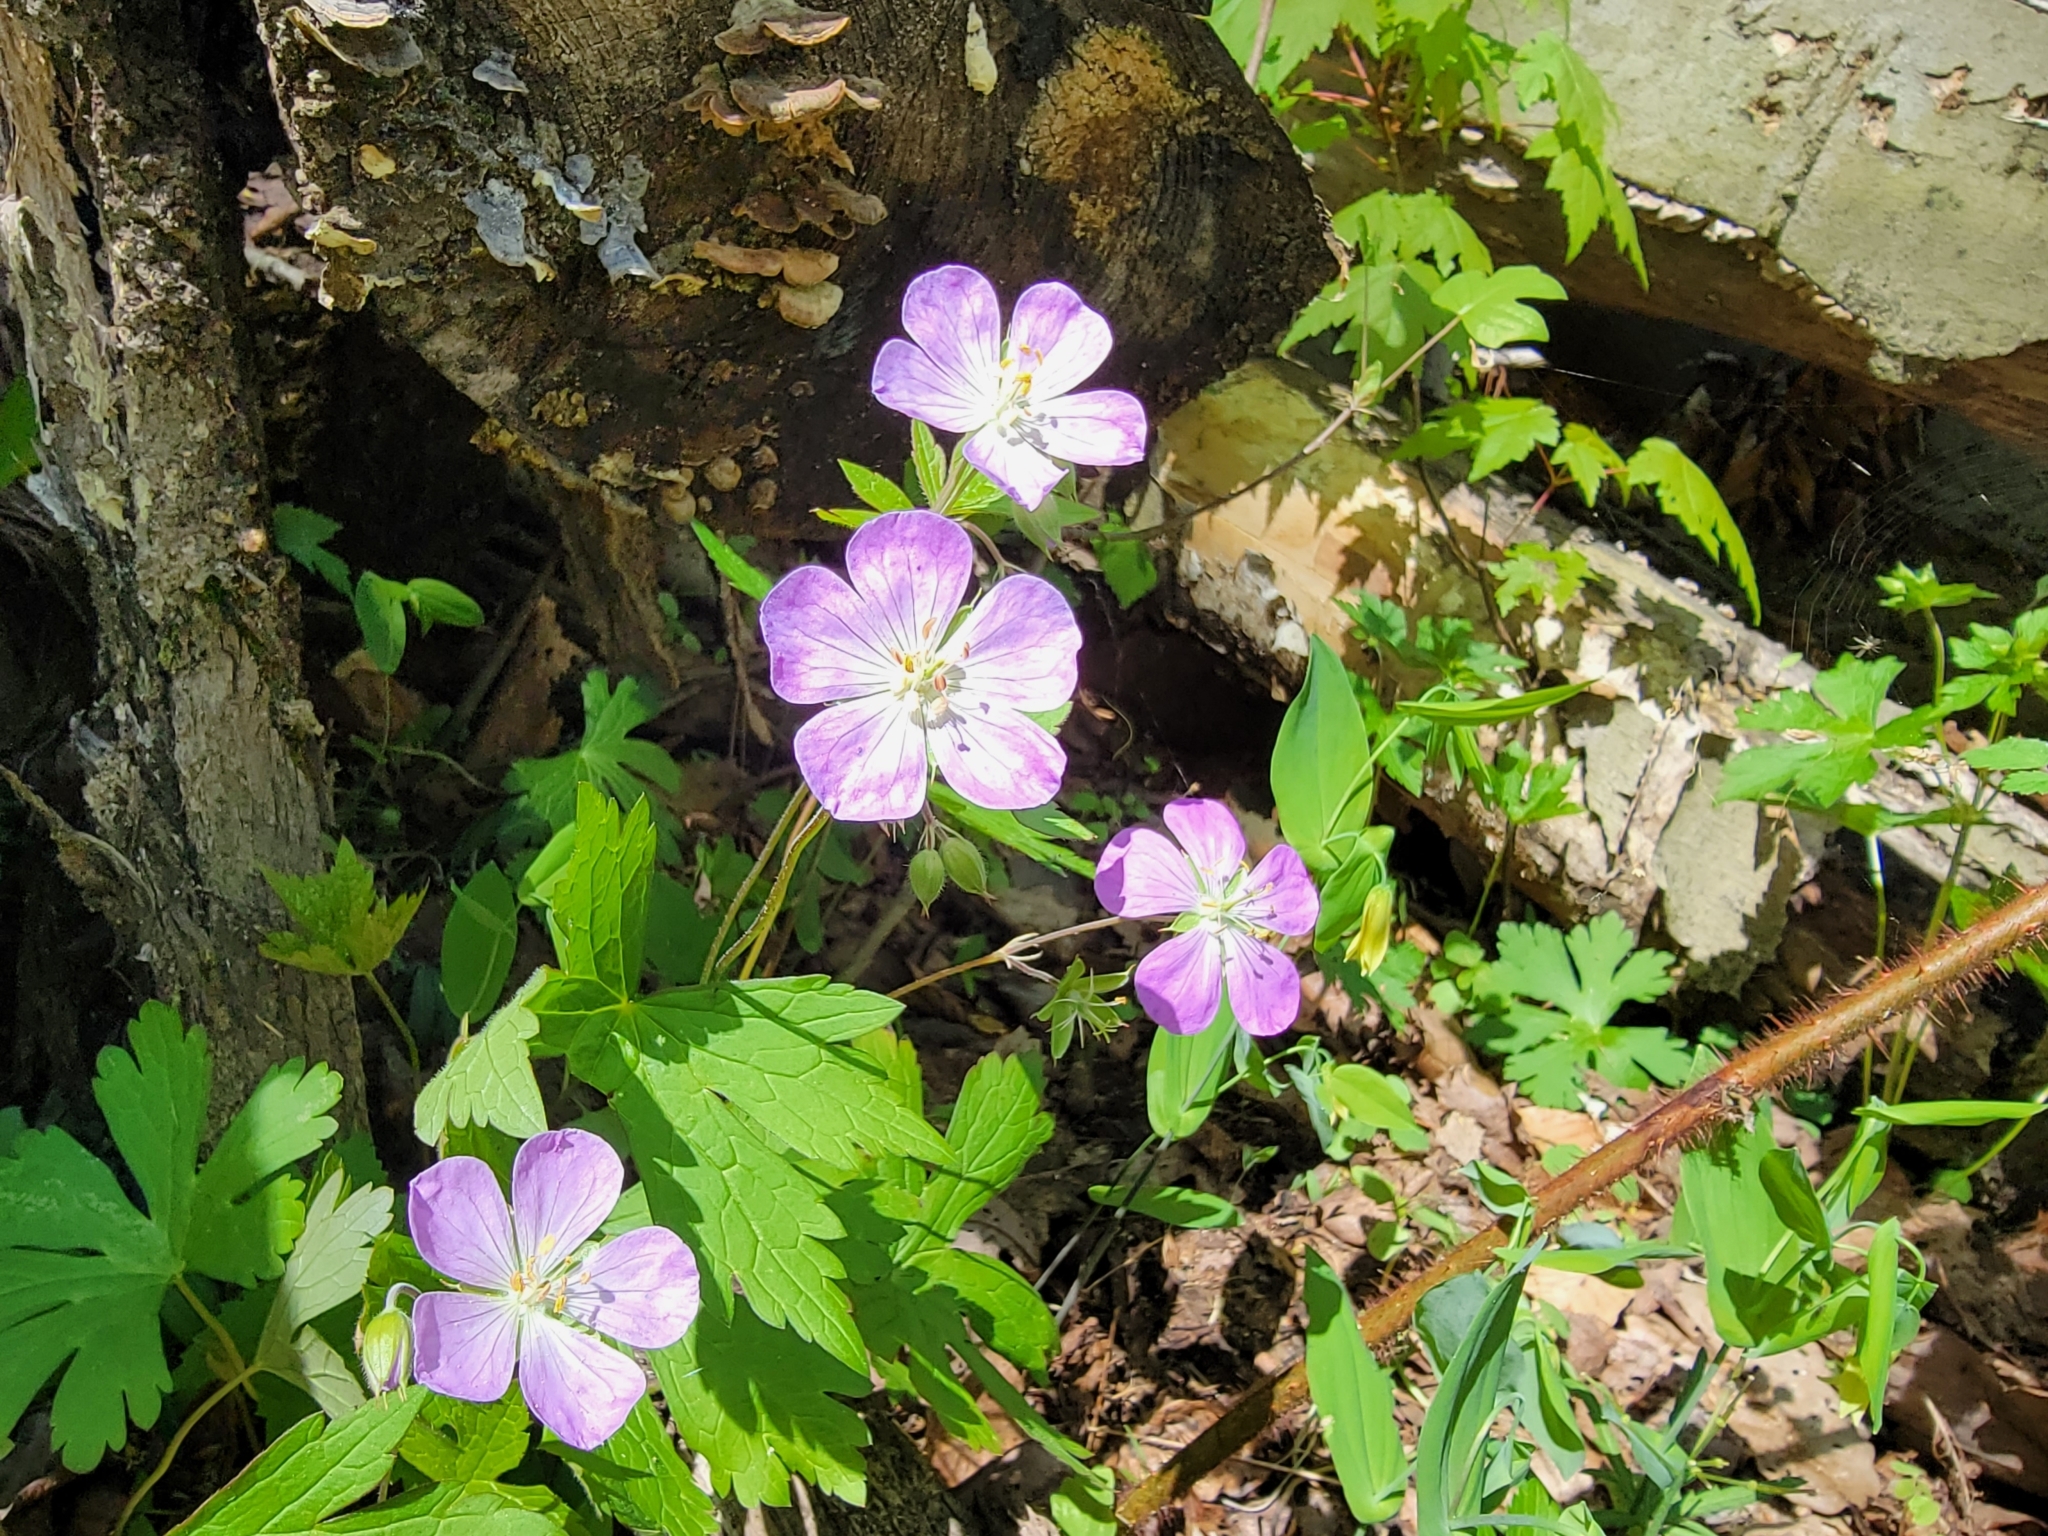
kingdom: Plantae
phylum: Tracheophyta
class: Magnoliopsida
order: Geraniales
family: Geraniaceae
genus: Geranium
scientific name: Geranium maculatum
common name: Spotted geranium
